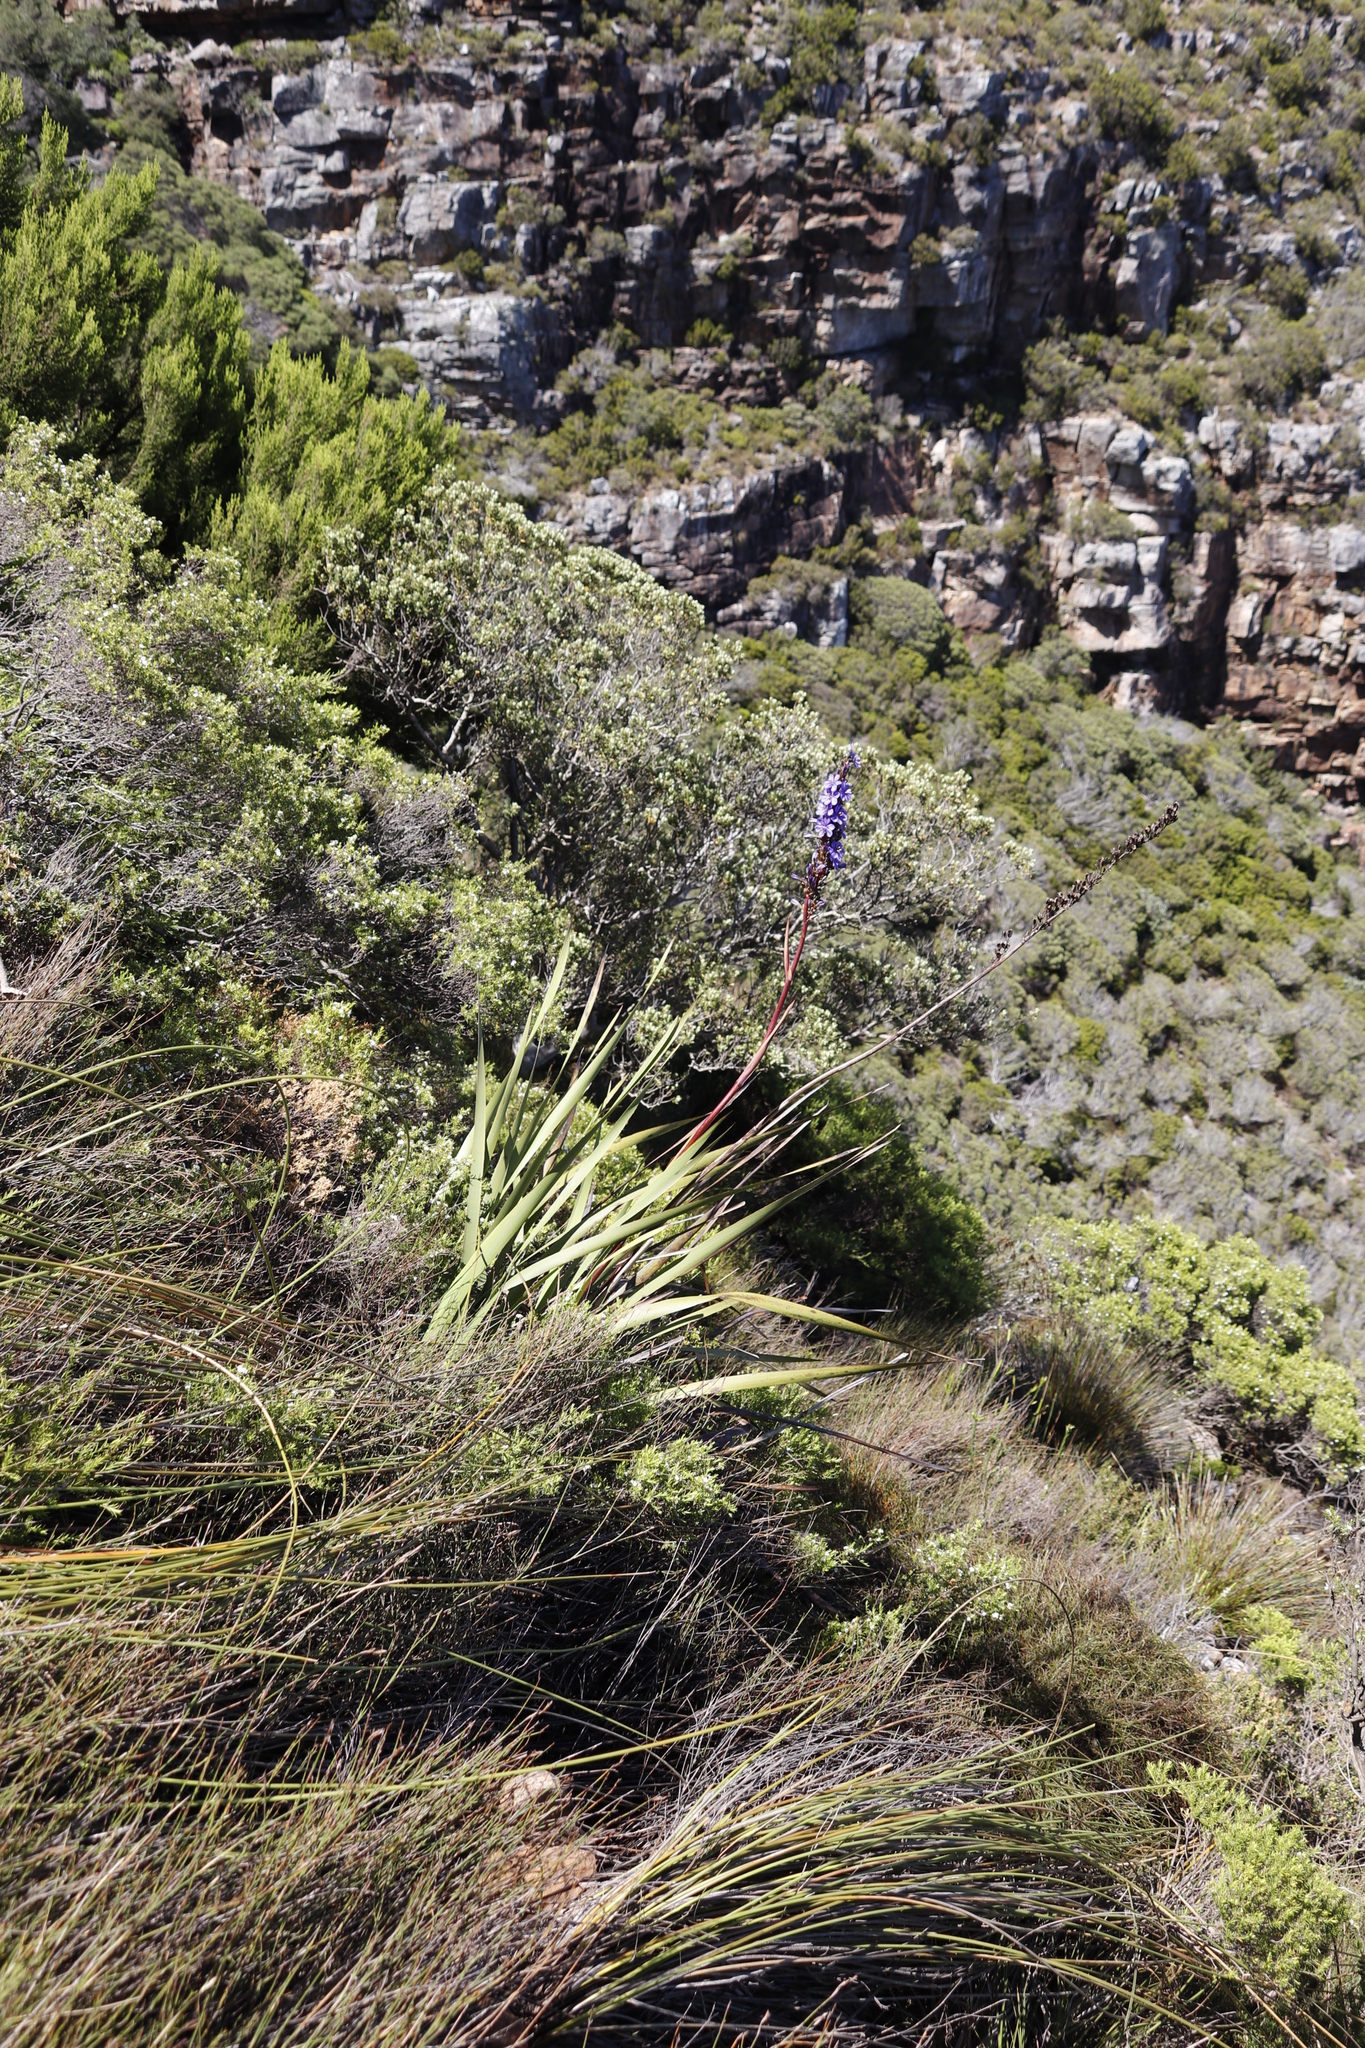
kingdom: Plantae
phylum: Tracheophyta
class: Liliopsida
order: Asparagales
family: Iridaceae
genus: Aristea
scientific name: Aristea capitata
